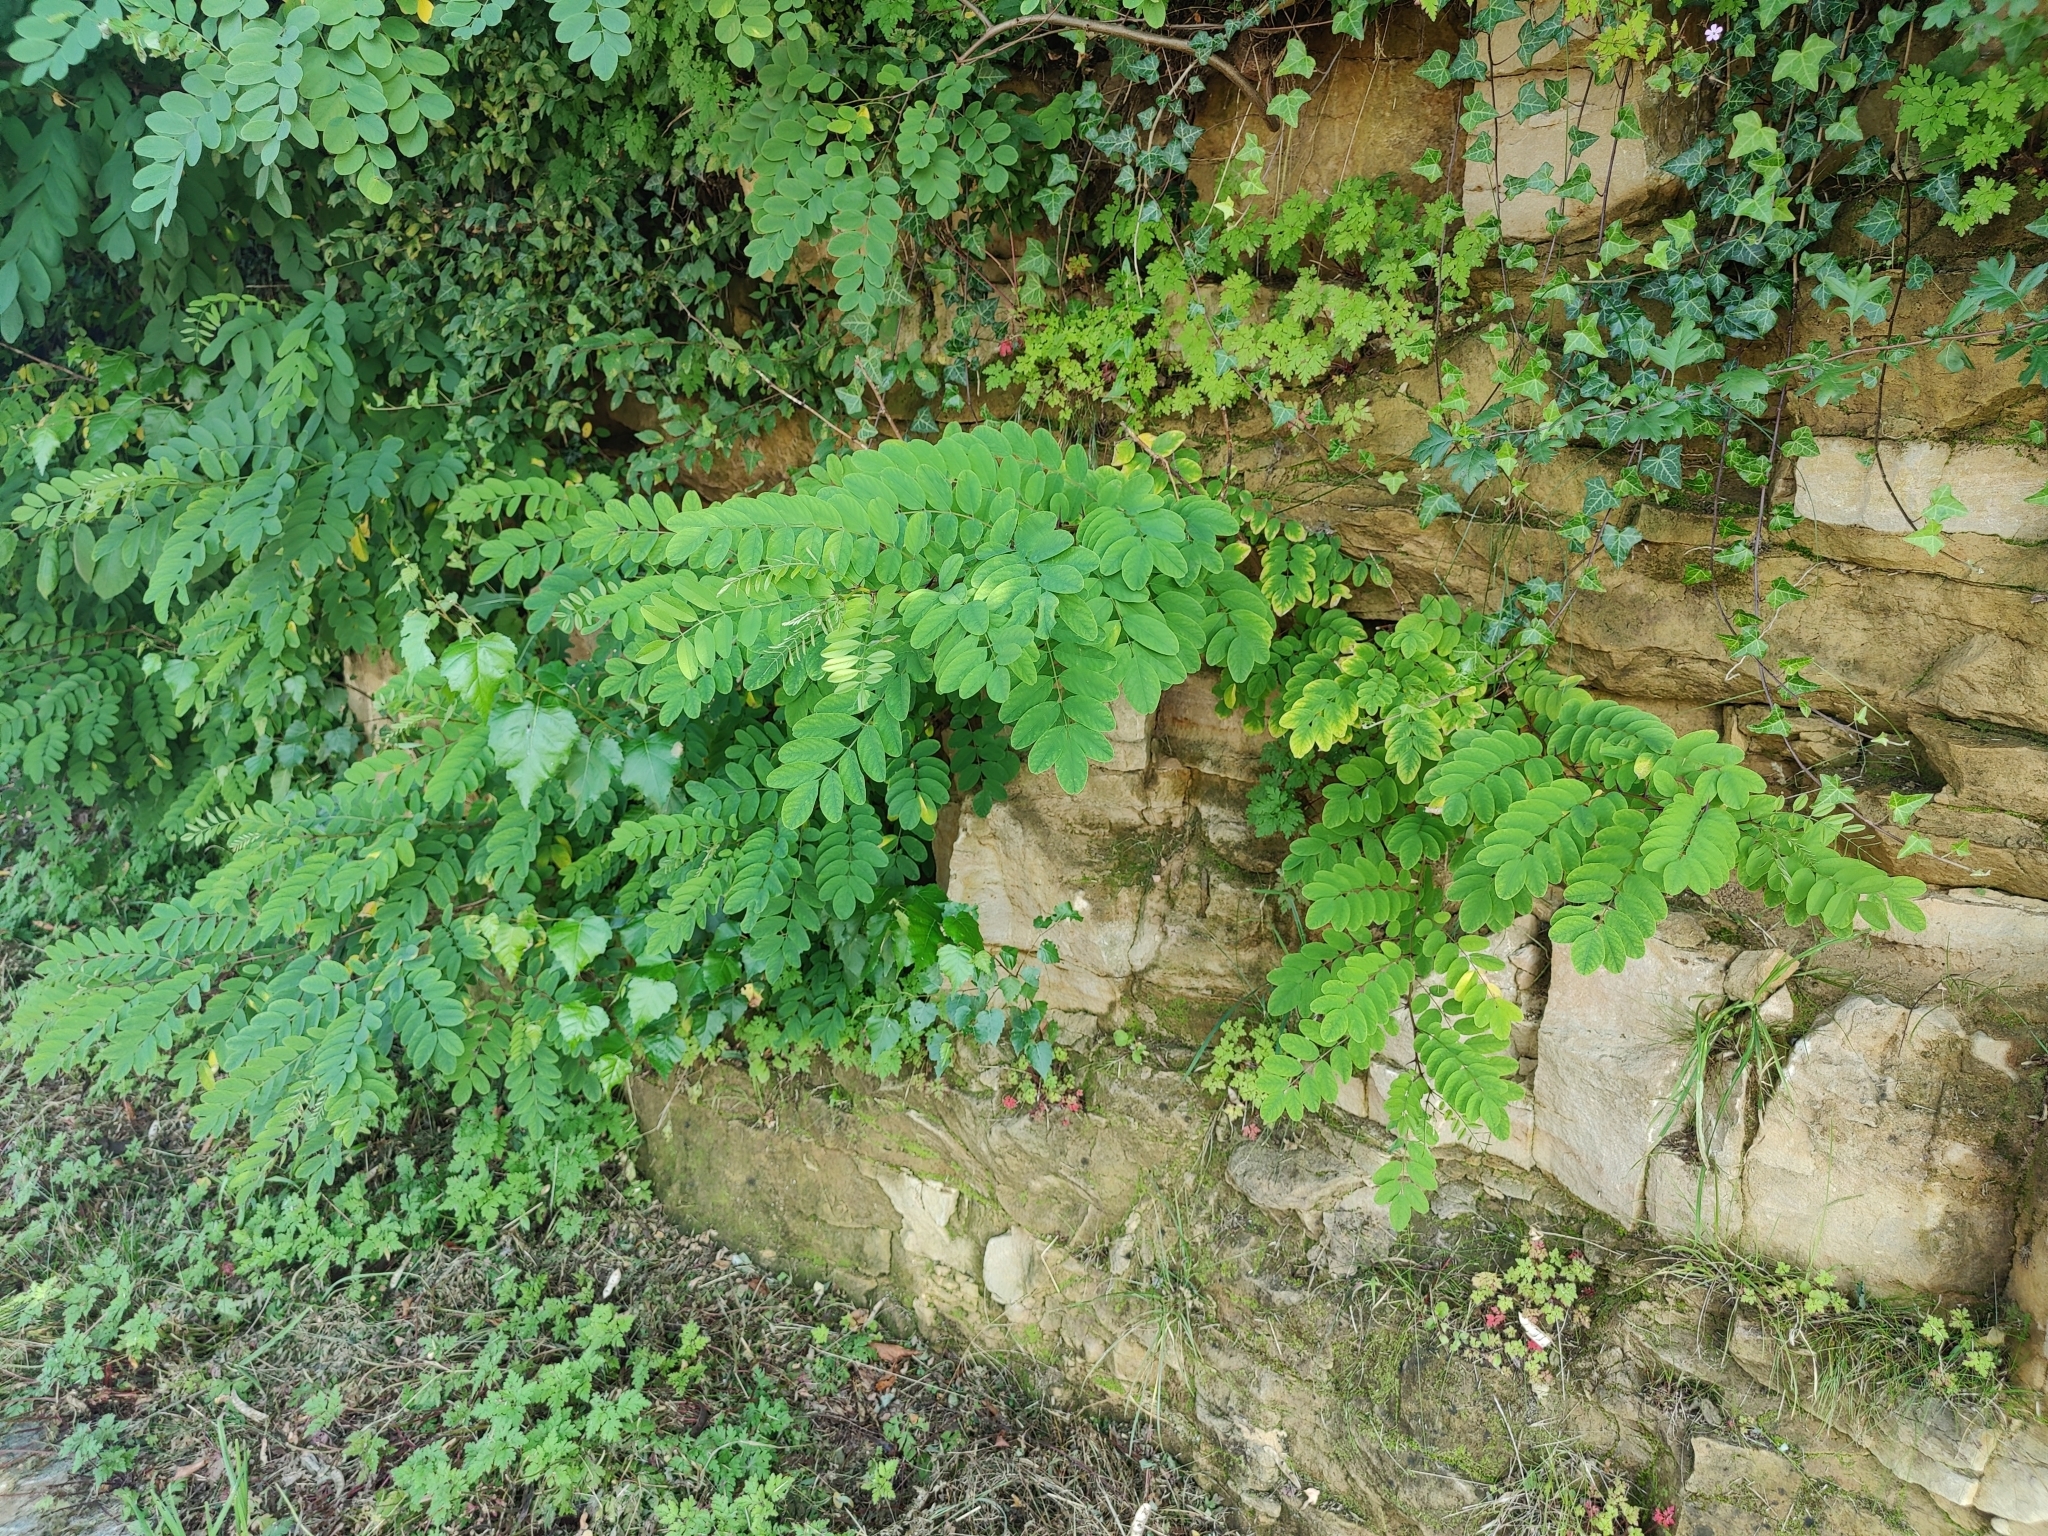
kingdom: Plantae
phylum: Tracheophyta
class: Magnoliopsida
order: Fabales
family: Fabaceae
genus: Robinia
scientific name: Robinia pseudoacacia
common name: Black locust
